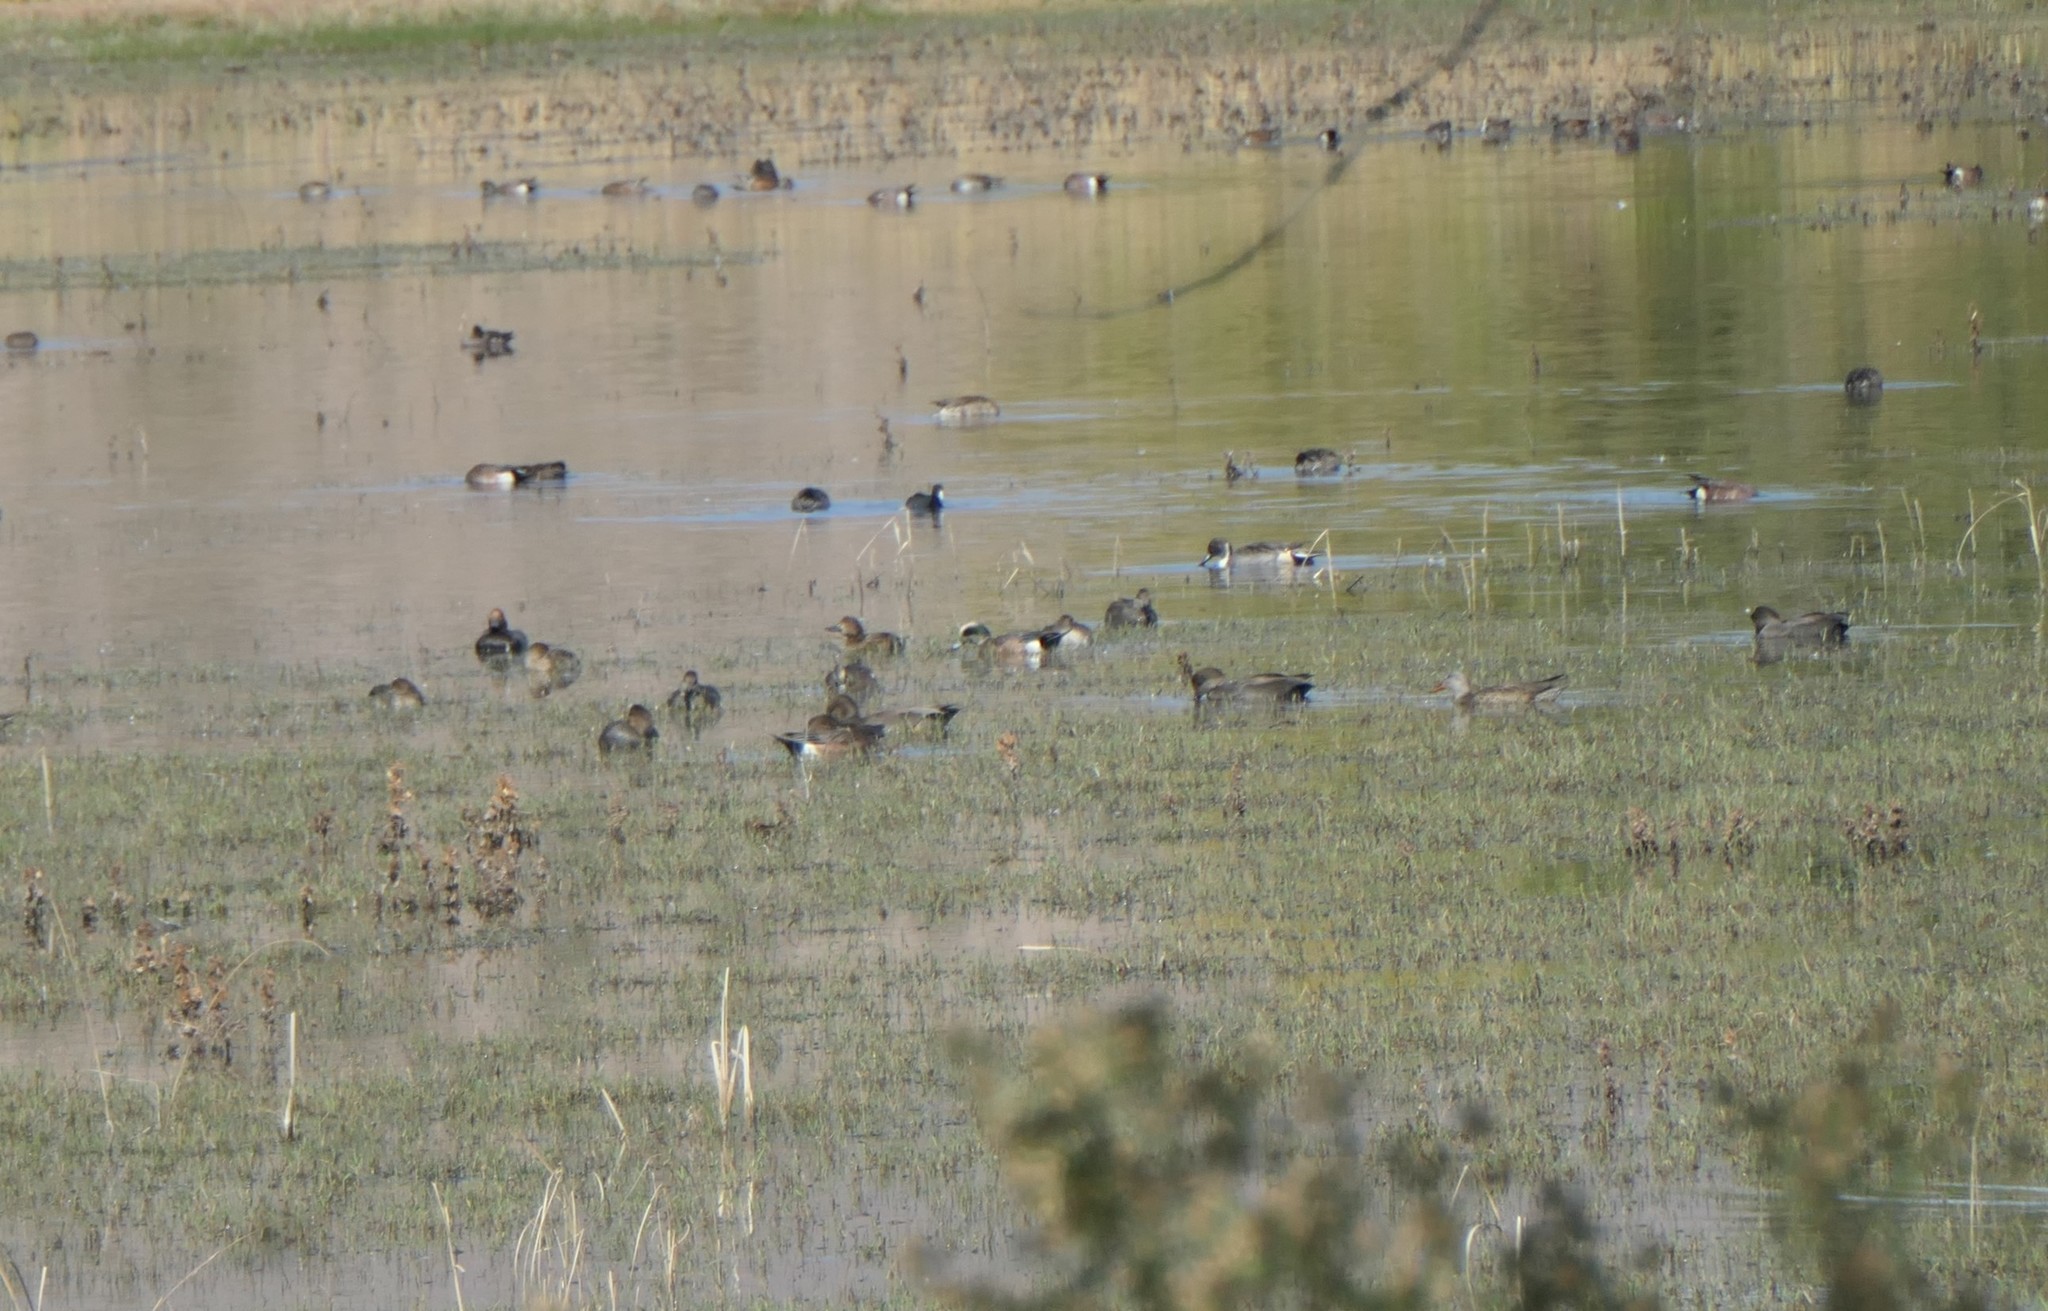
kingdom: Animalia
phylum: Chordata
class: Aves
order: Anseriformes
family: Anatidae
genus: Mareca
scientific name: Mareca americana
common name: American wigeon
